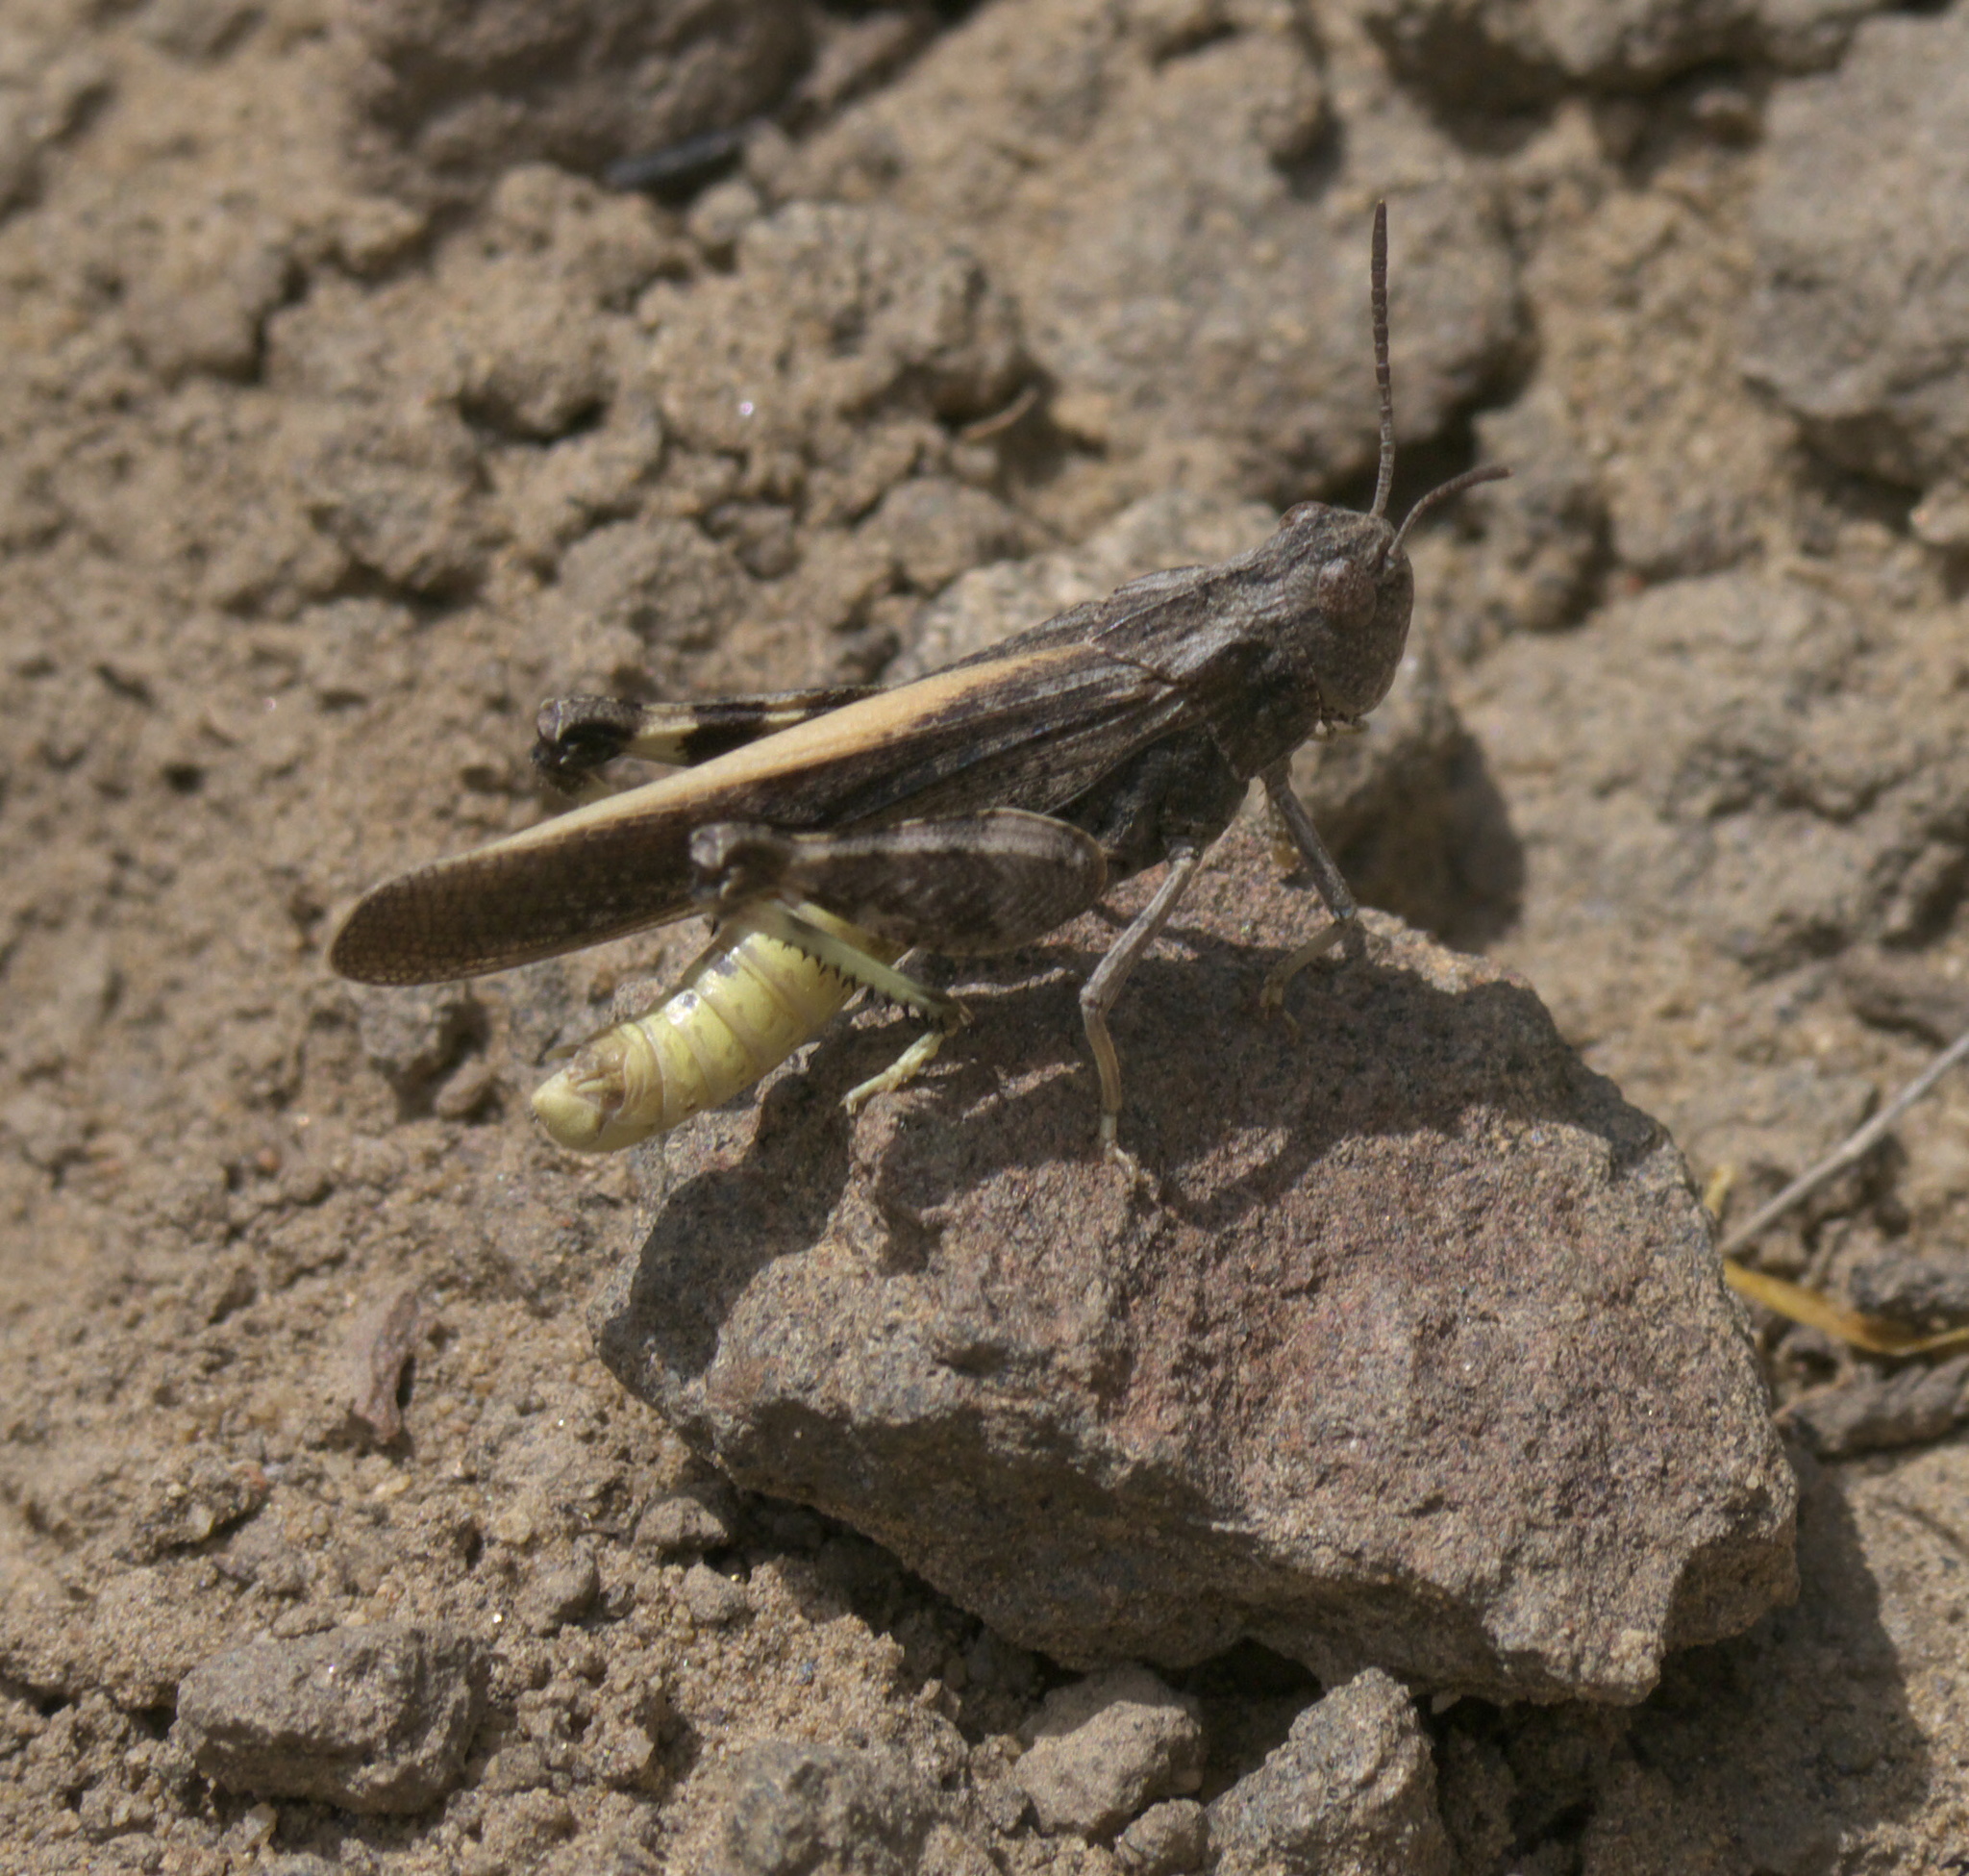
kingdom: Animalia
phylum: Arthropoda
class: Insecta
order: Orthoptera
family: Acrididae
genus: Arphia
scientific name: Arphia conspersa
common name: Speckle-winged rangeland grasshopper
